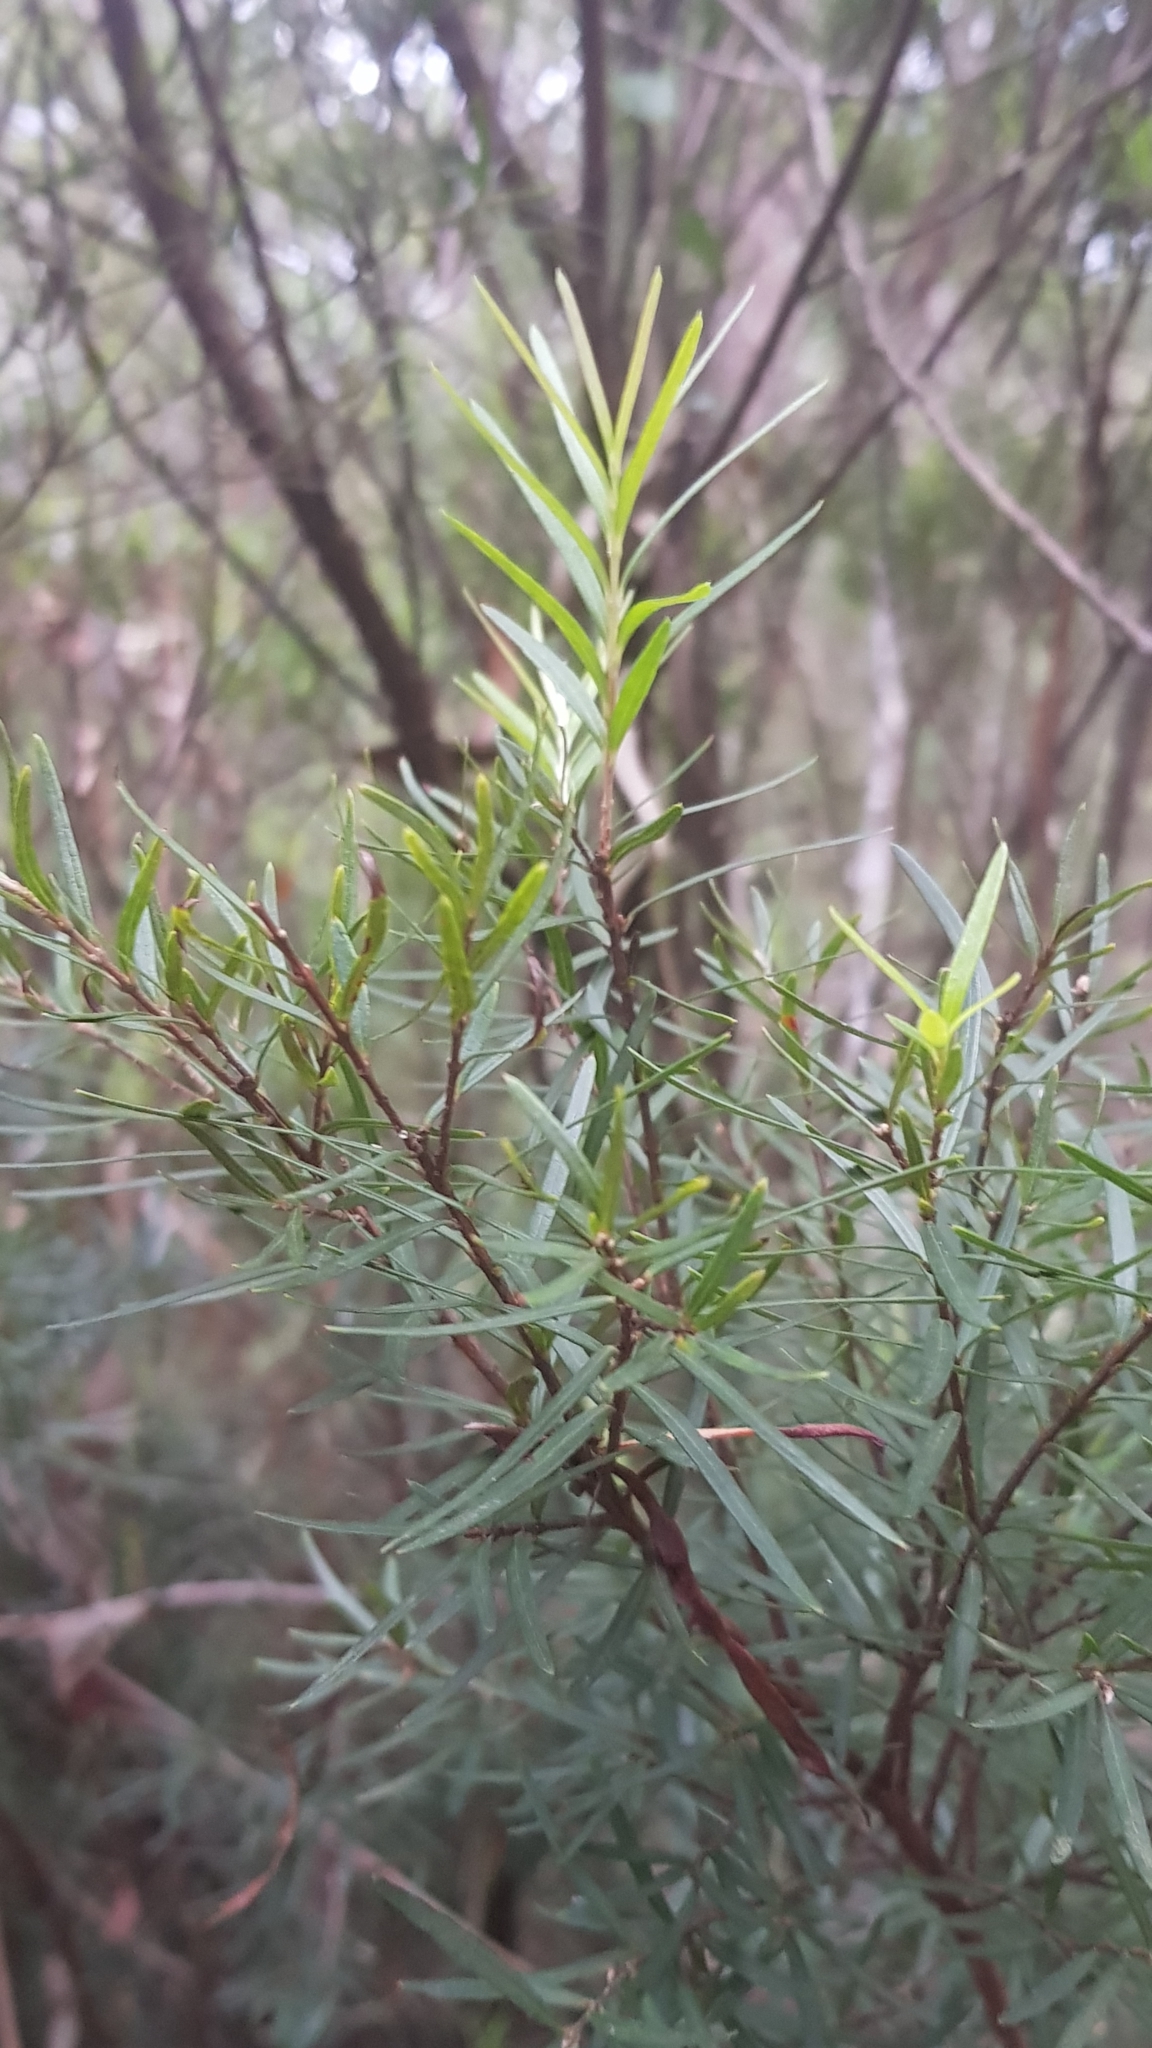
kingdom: Plantae
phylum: Tracheophyta
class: Magnoliopsida
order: Myrtales
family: Myrtaceae
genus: Austromyrtus
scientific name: Austromyrtus tenuifolia
